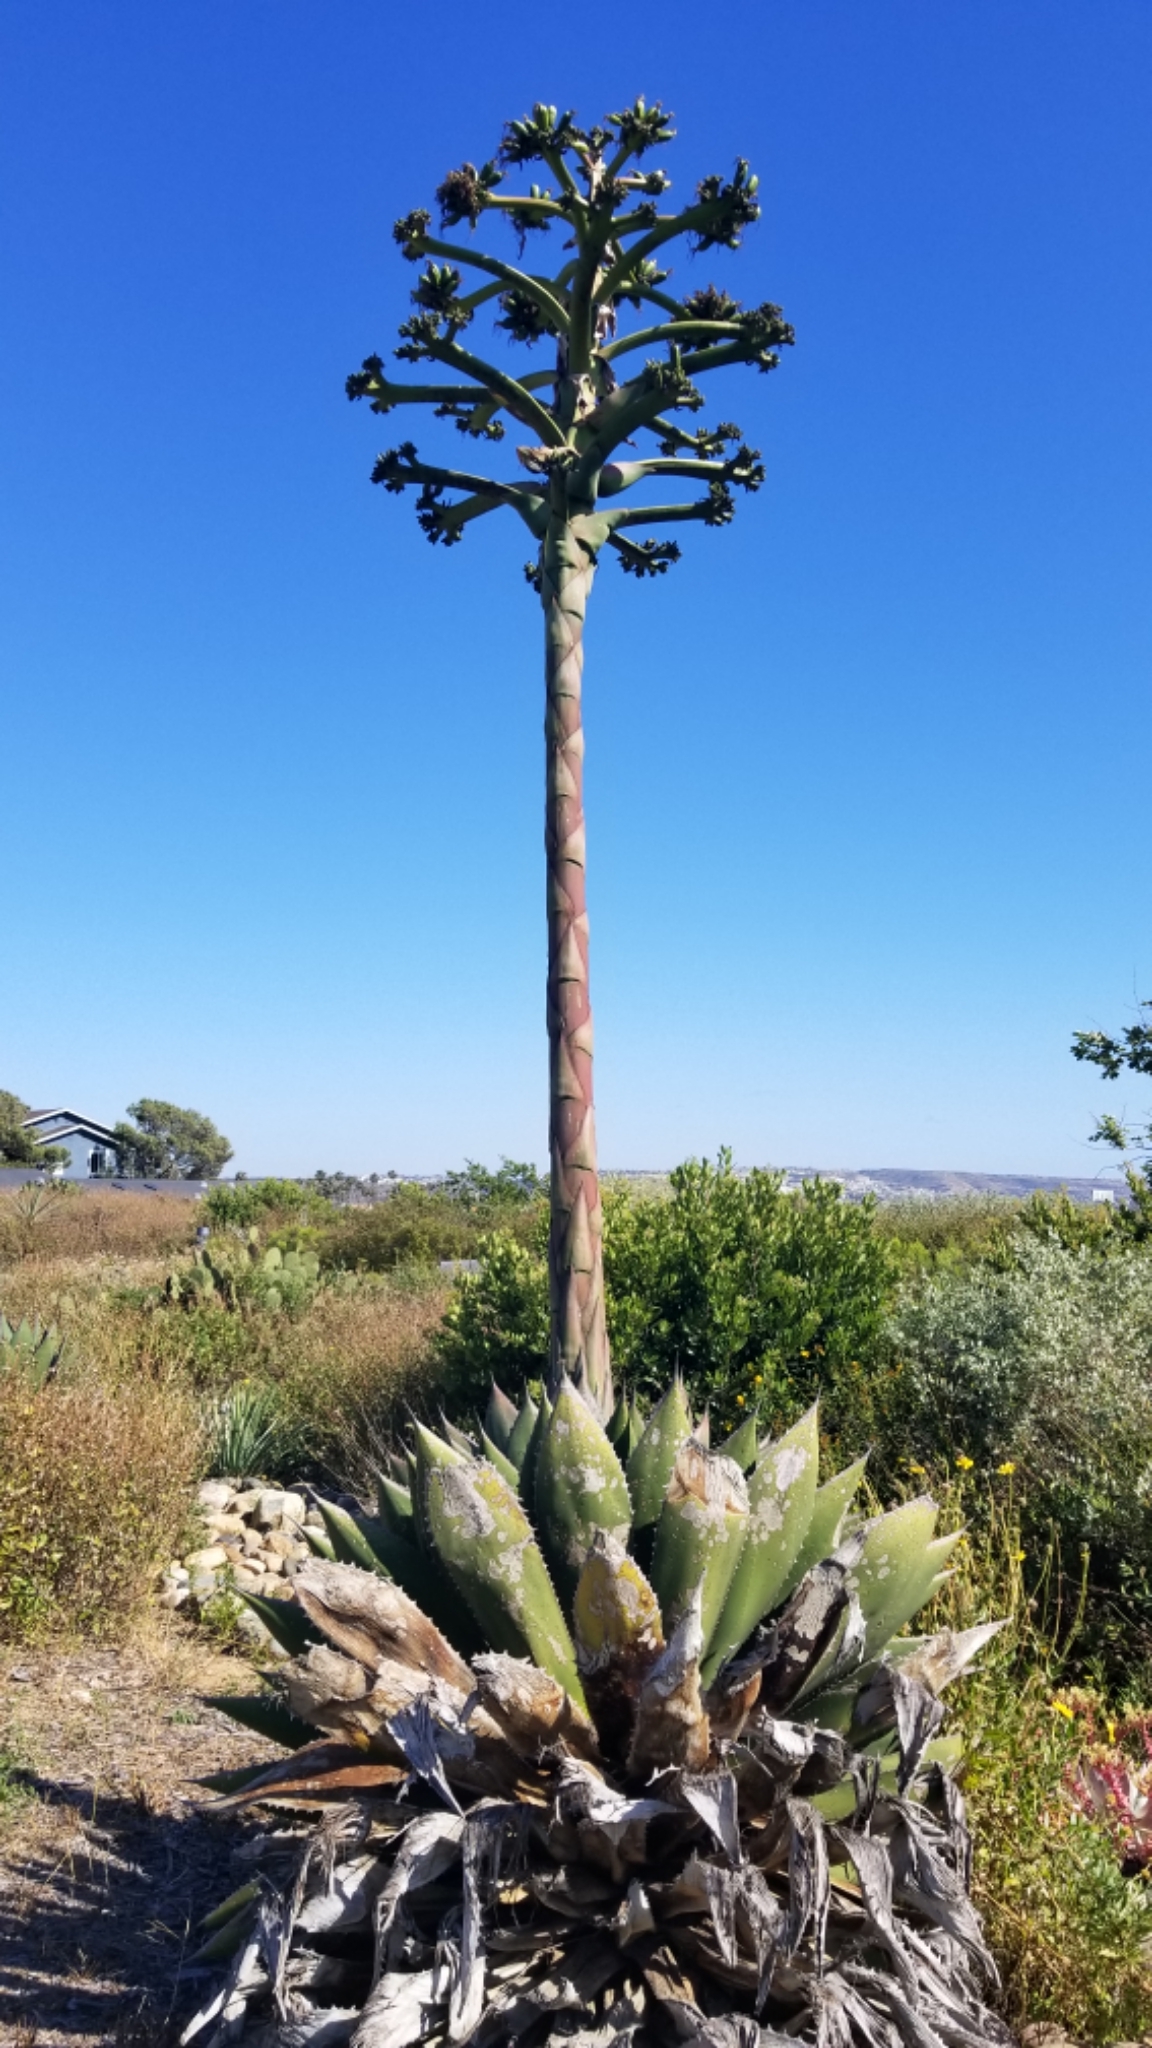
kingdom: Plantae
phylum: Tracheophyta
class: Liliopsida
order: Asparagales
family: Asparagaceae
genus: Agave
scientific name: Agave shawii
